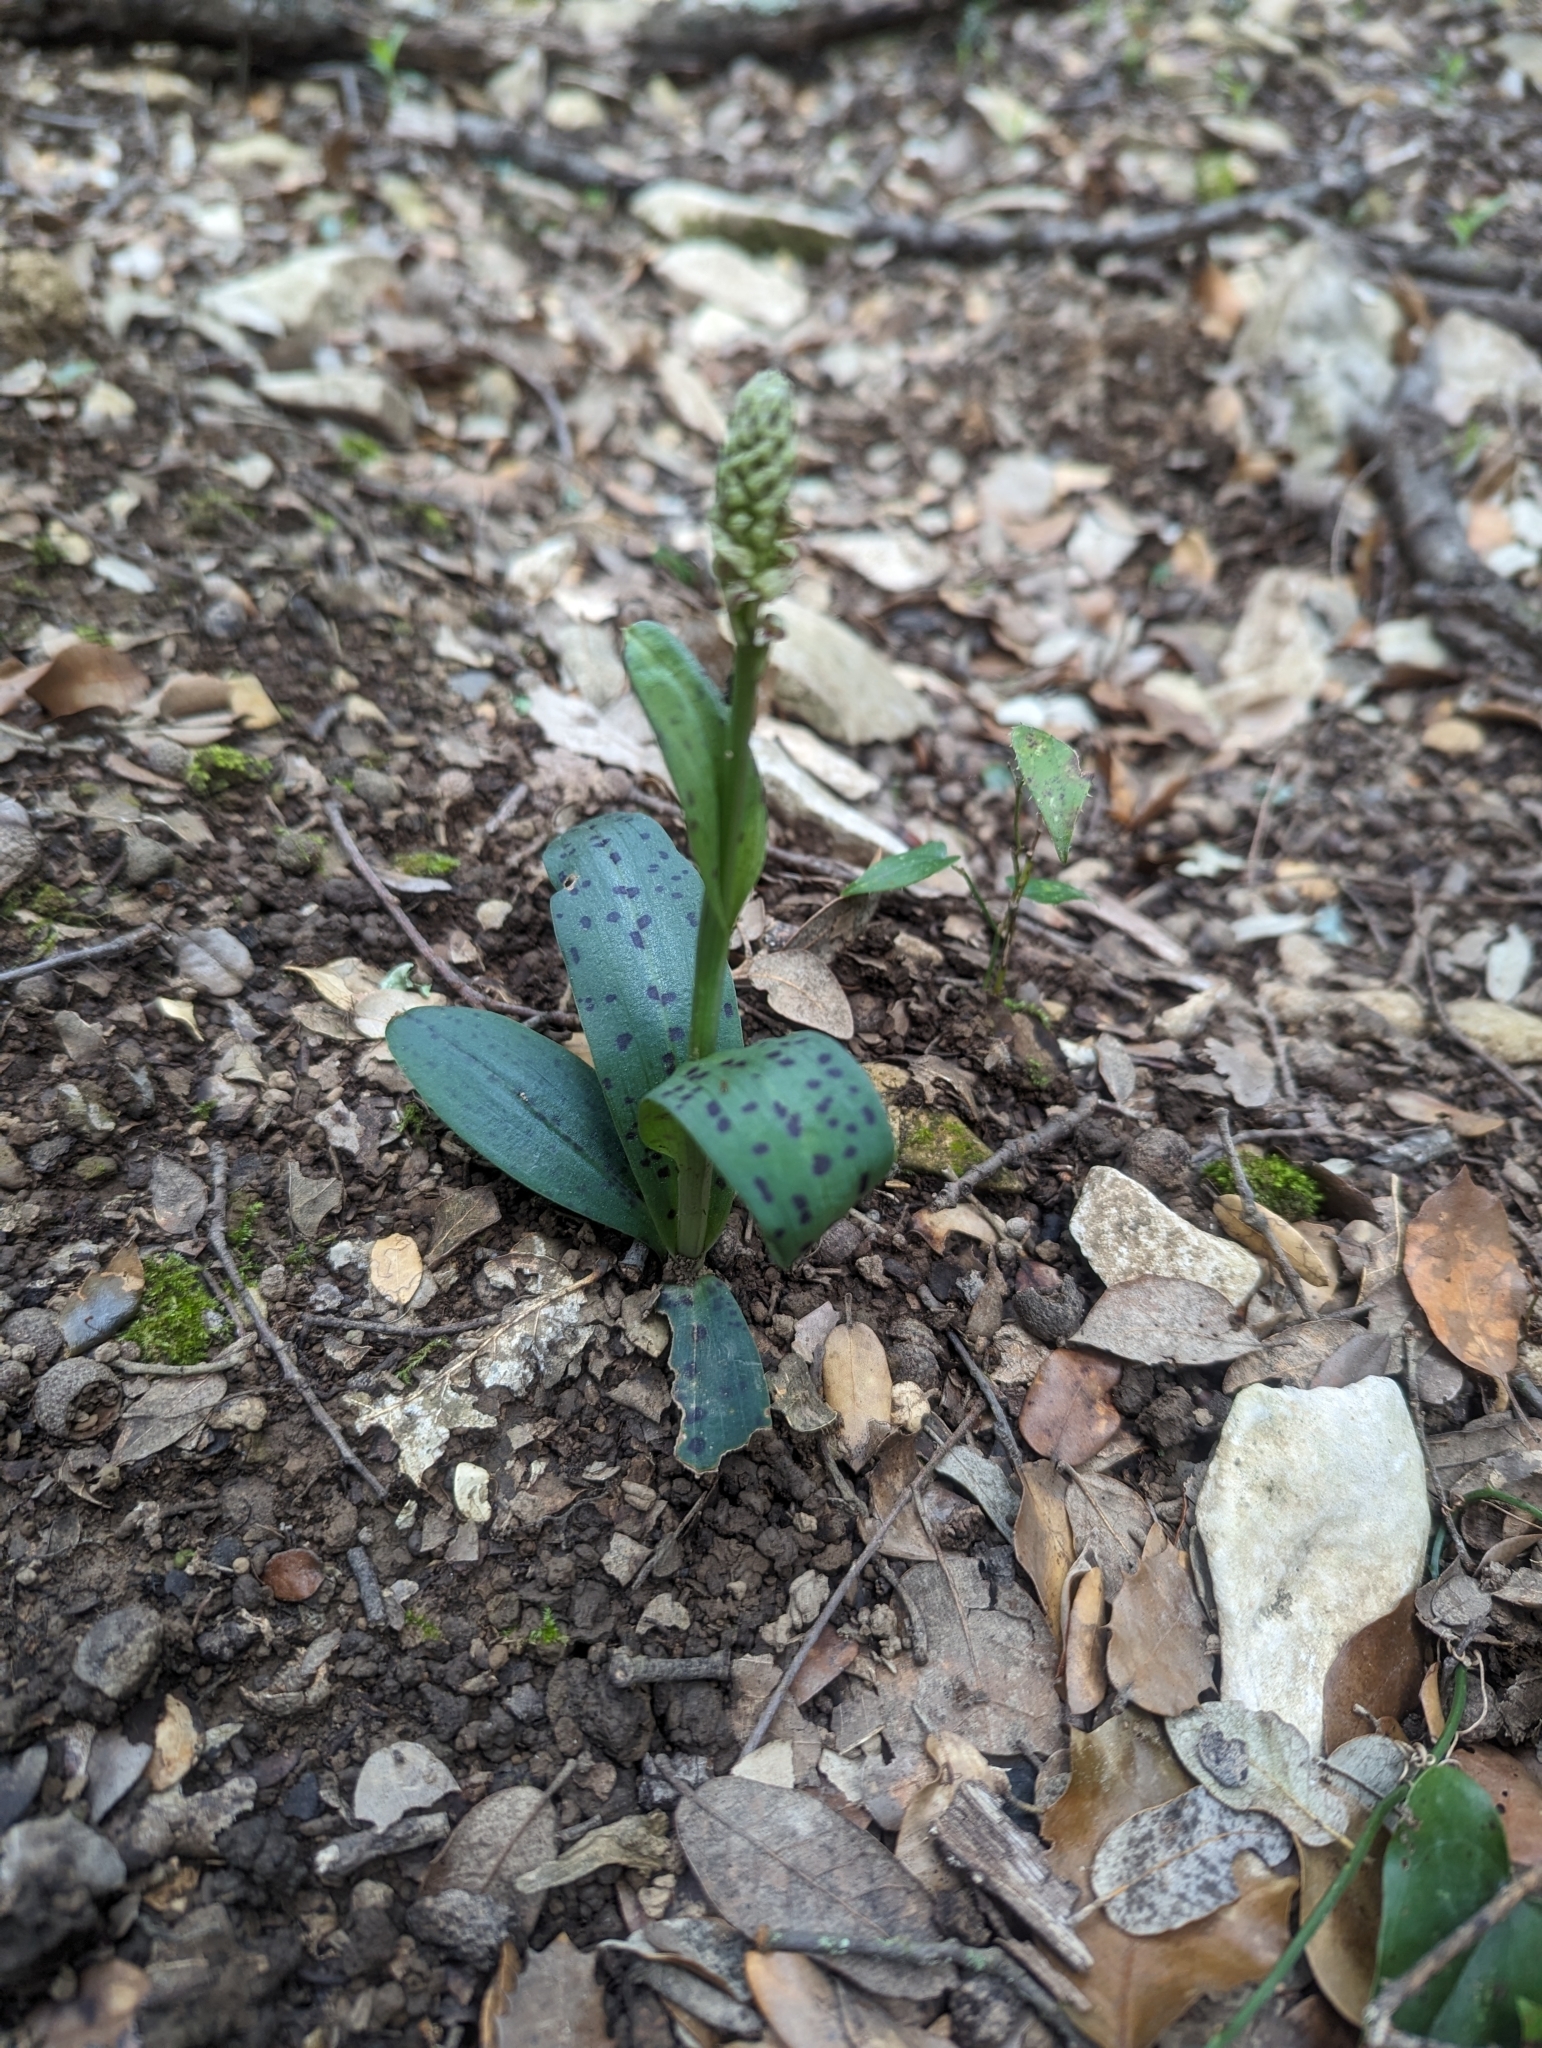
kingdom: Plantae
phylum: Tracheophyta
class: Liliopsida
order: Asparagales
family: Orchidaceae
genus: Neotinea
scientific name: Neotinea maculata
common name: Dense-flowered orchid
